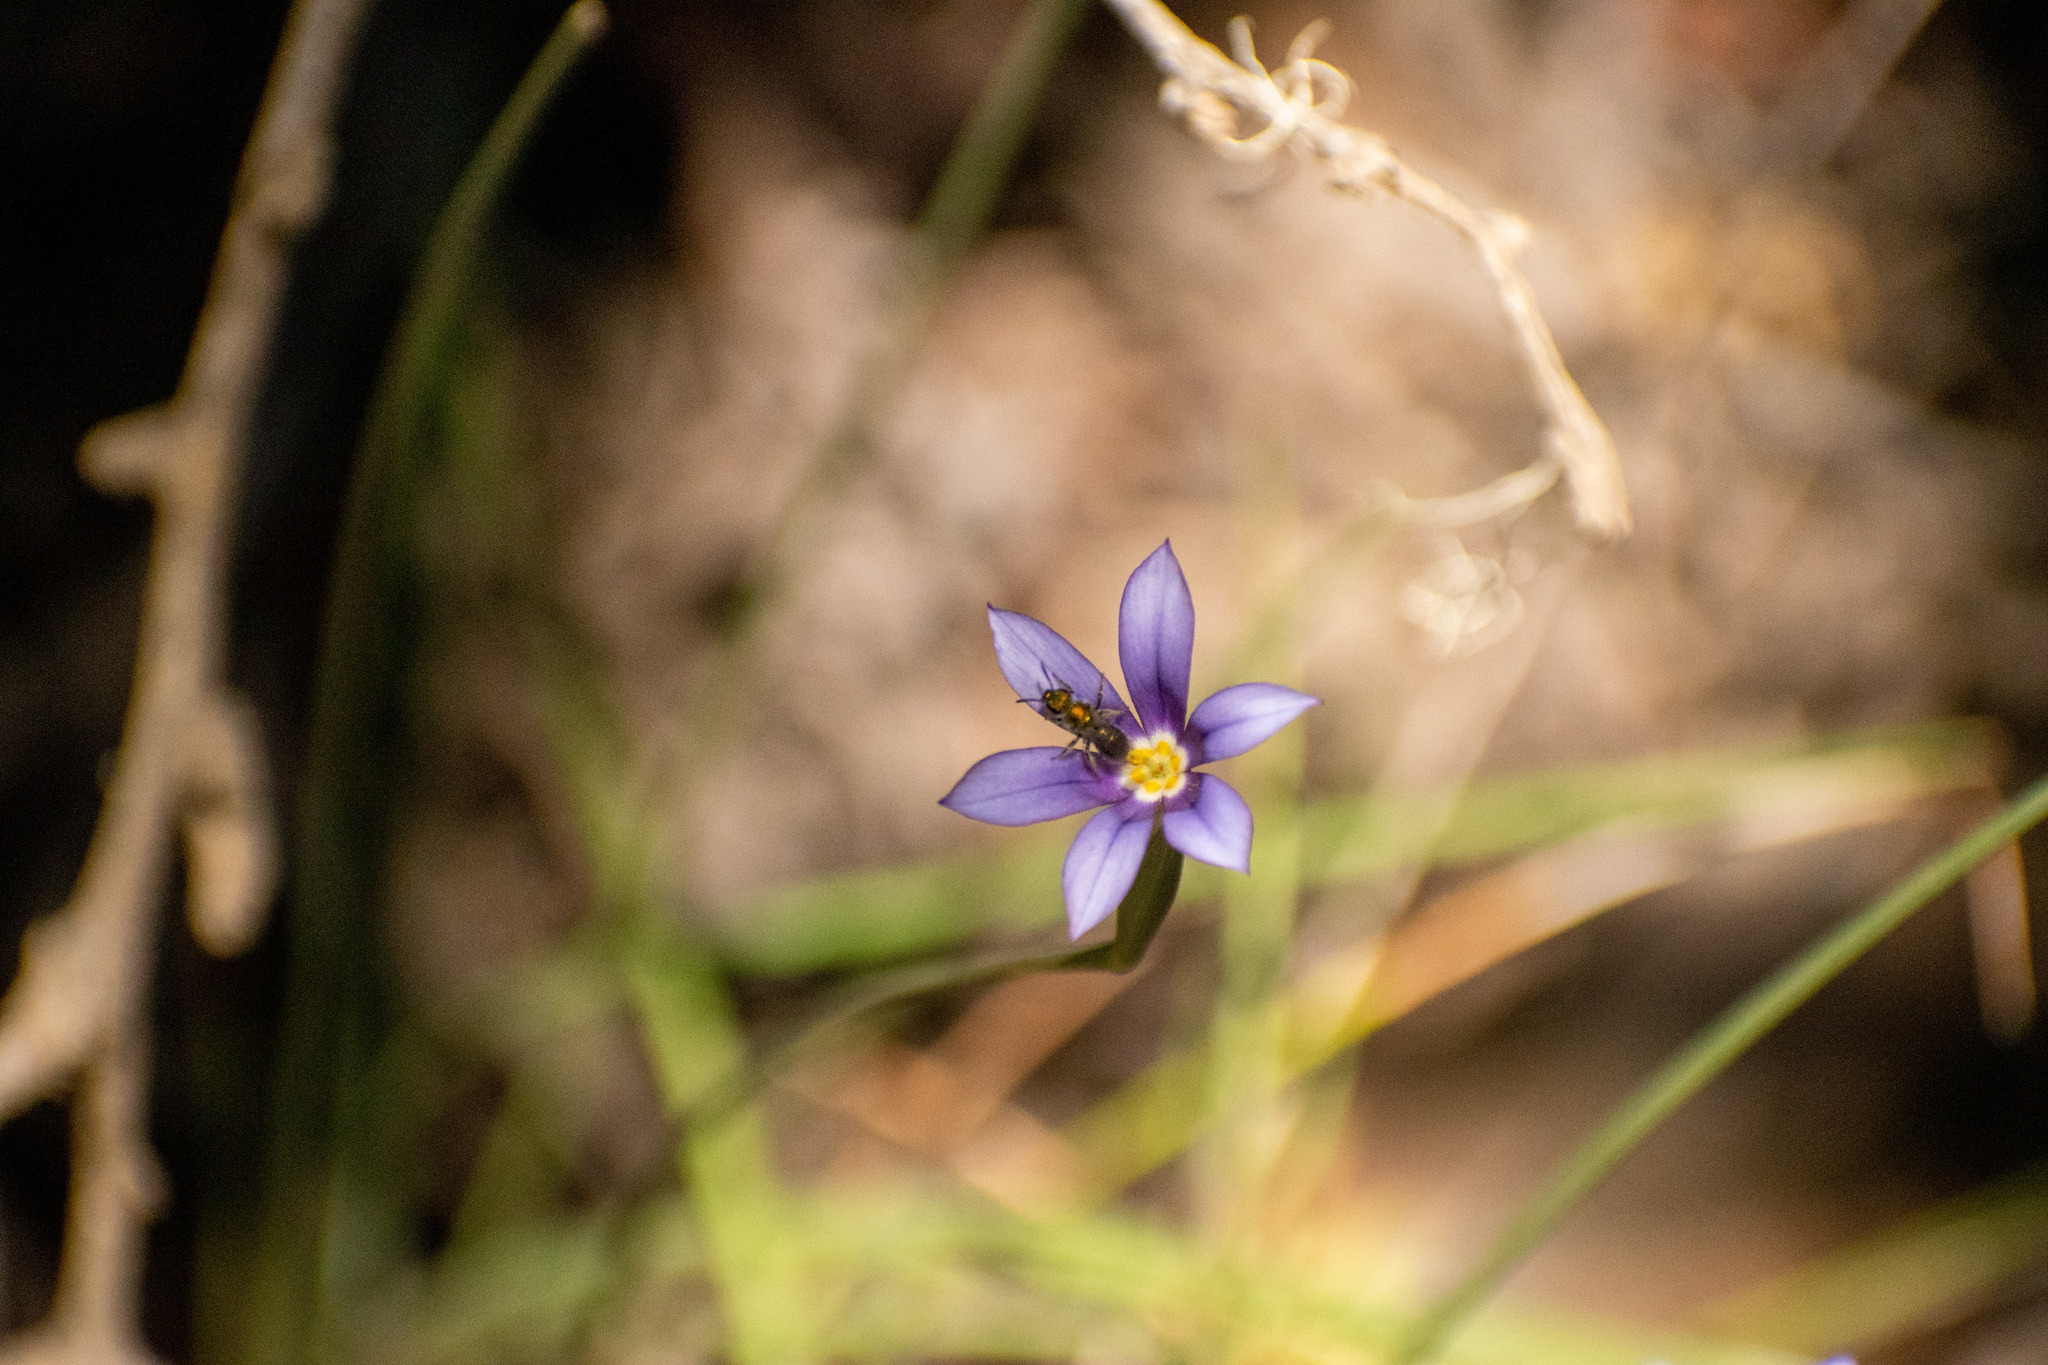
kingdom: Plantae
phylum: Tracheophyta
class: Liliopsida
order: Asparagales
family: Iridaceae
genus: Solenomelus
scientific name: Solenomelus segethi
